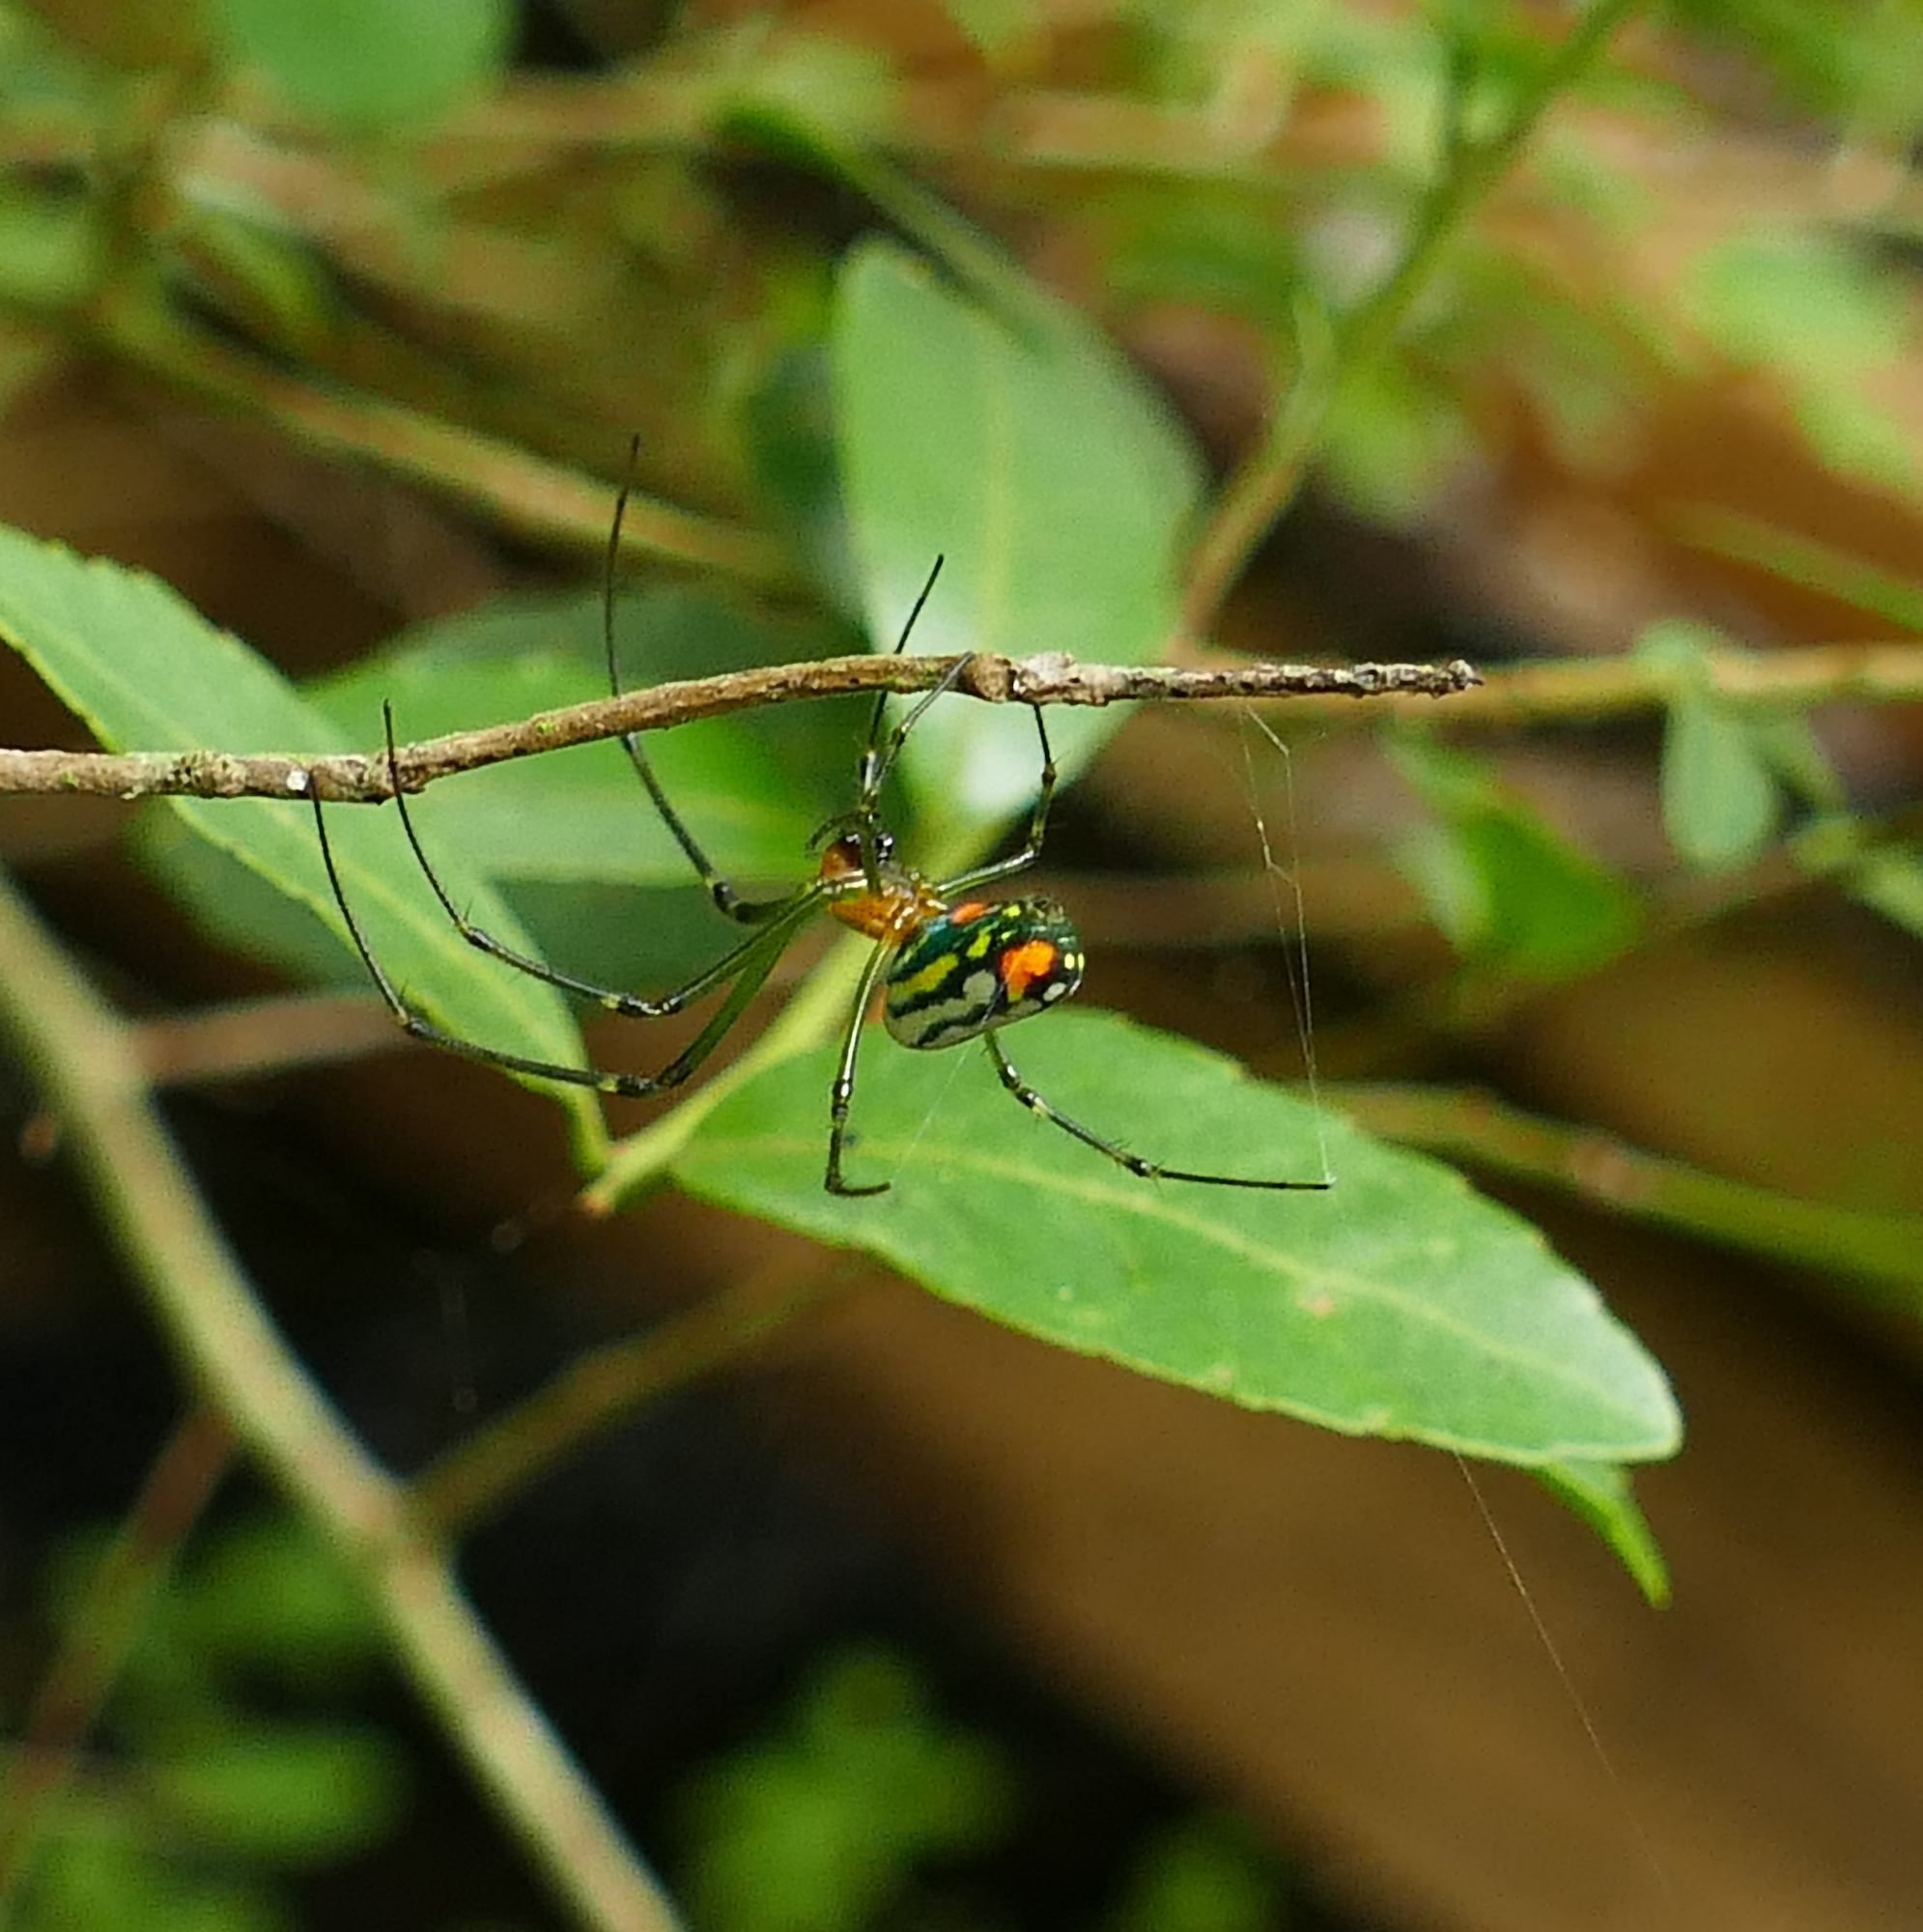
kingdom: Animalia
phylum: Arthropoda
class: Arachnida
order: Araneae
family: Tetragnathidae
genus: Leucauge
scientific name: Leucauge argyrobapta
